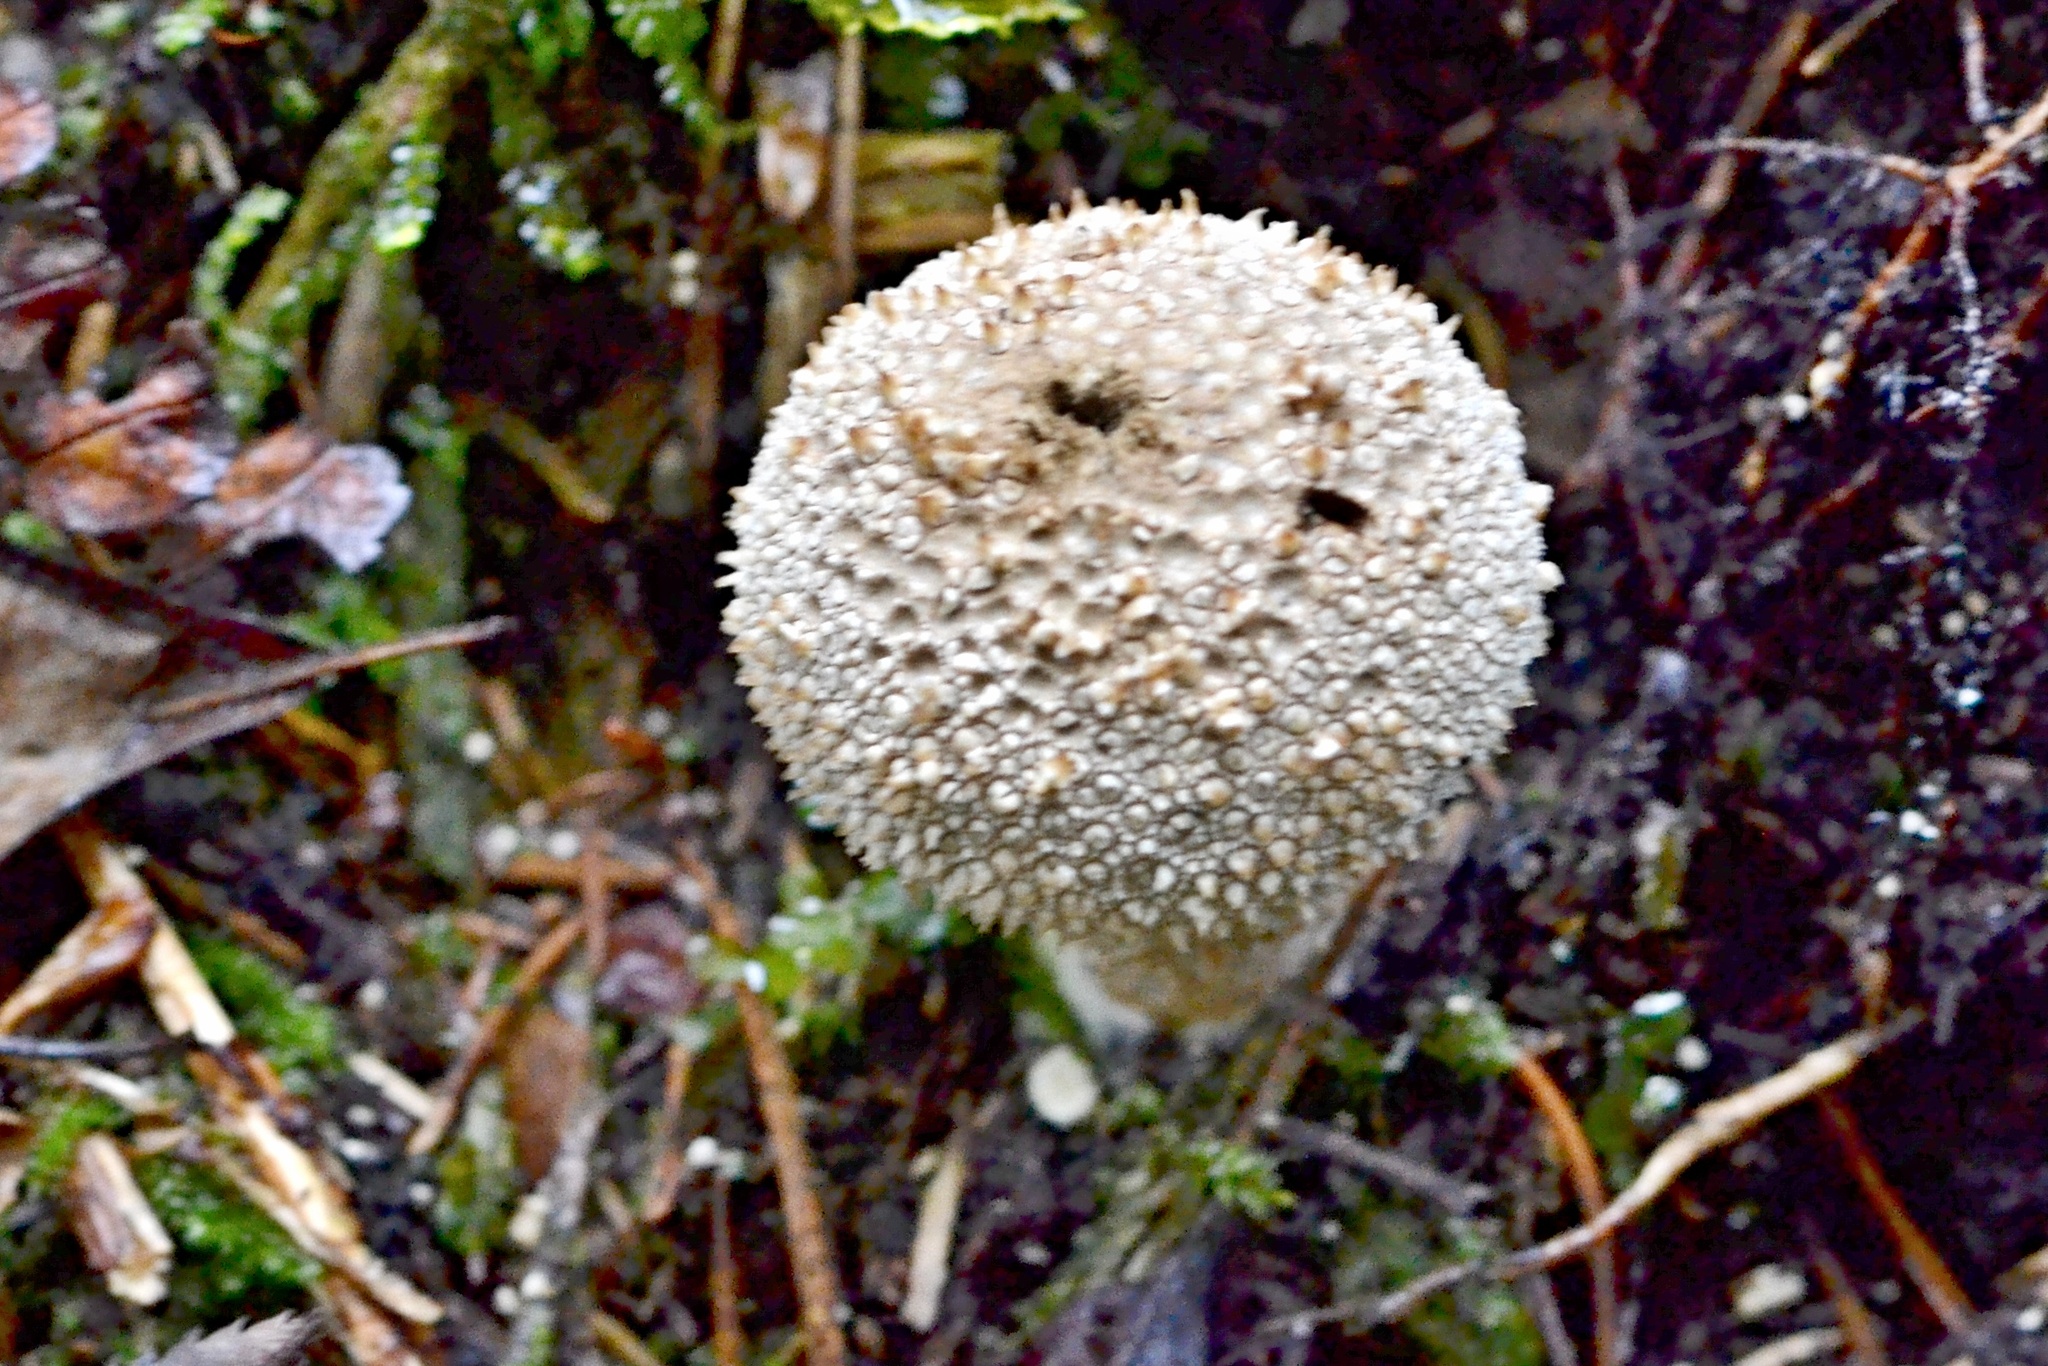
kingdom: Fungi
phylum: Basidiomycota
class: Agaricomycetes
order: Agaricales
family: Lycoperdaceae
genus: Lycoperdon
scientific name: Lycoperdon perlatum
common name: Common puffball
